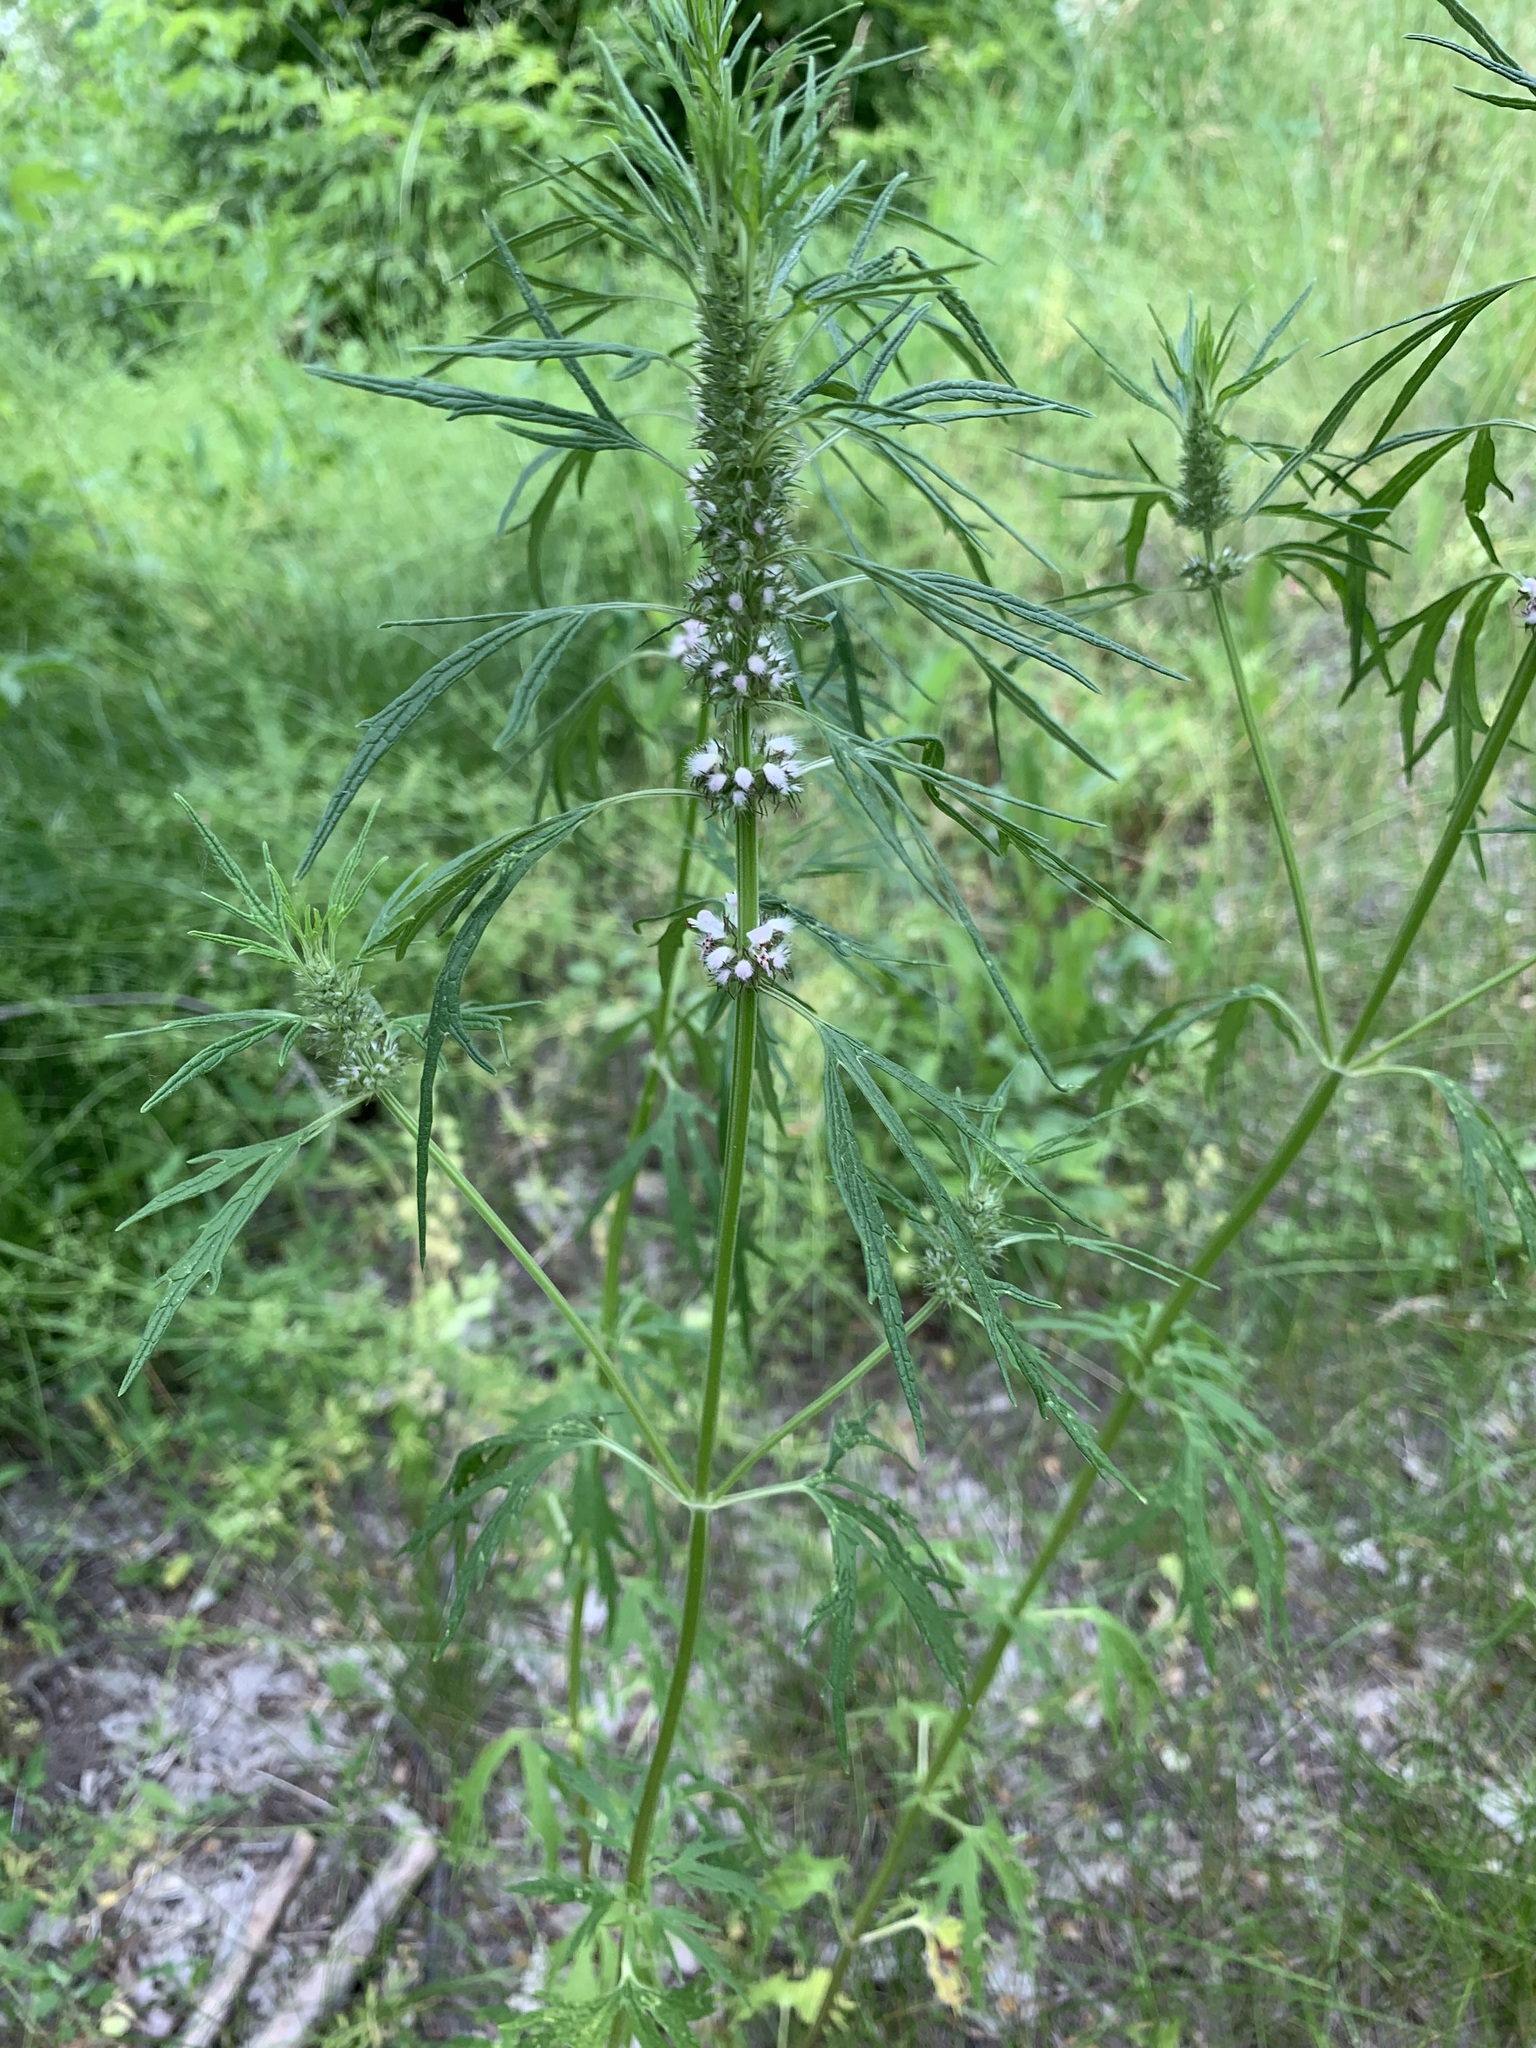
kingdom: Plantae
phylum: Tracheophyta
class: Magnoliopsida
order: Lamiales
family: Lamiaceae
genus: Leonurus
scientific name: Leonurus glaucescens
